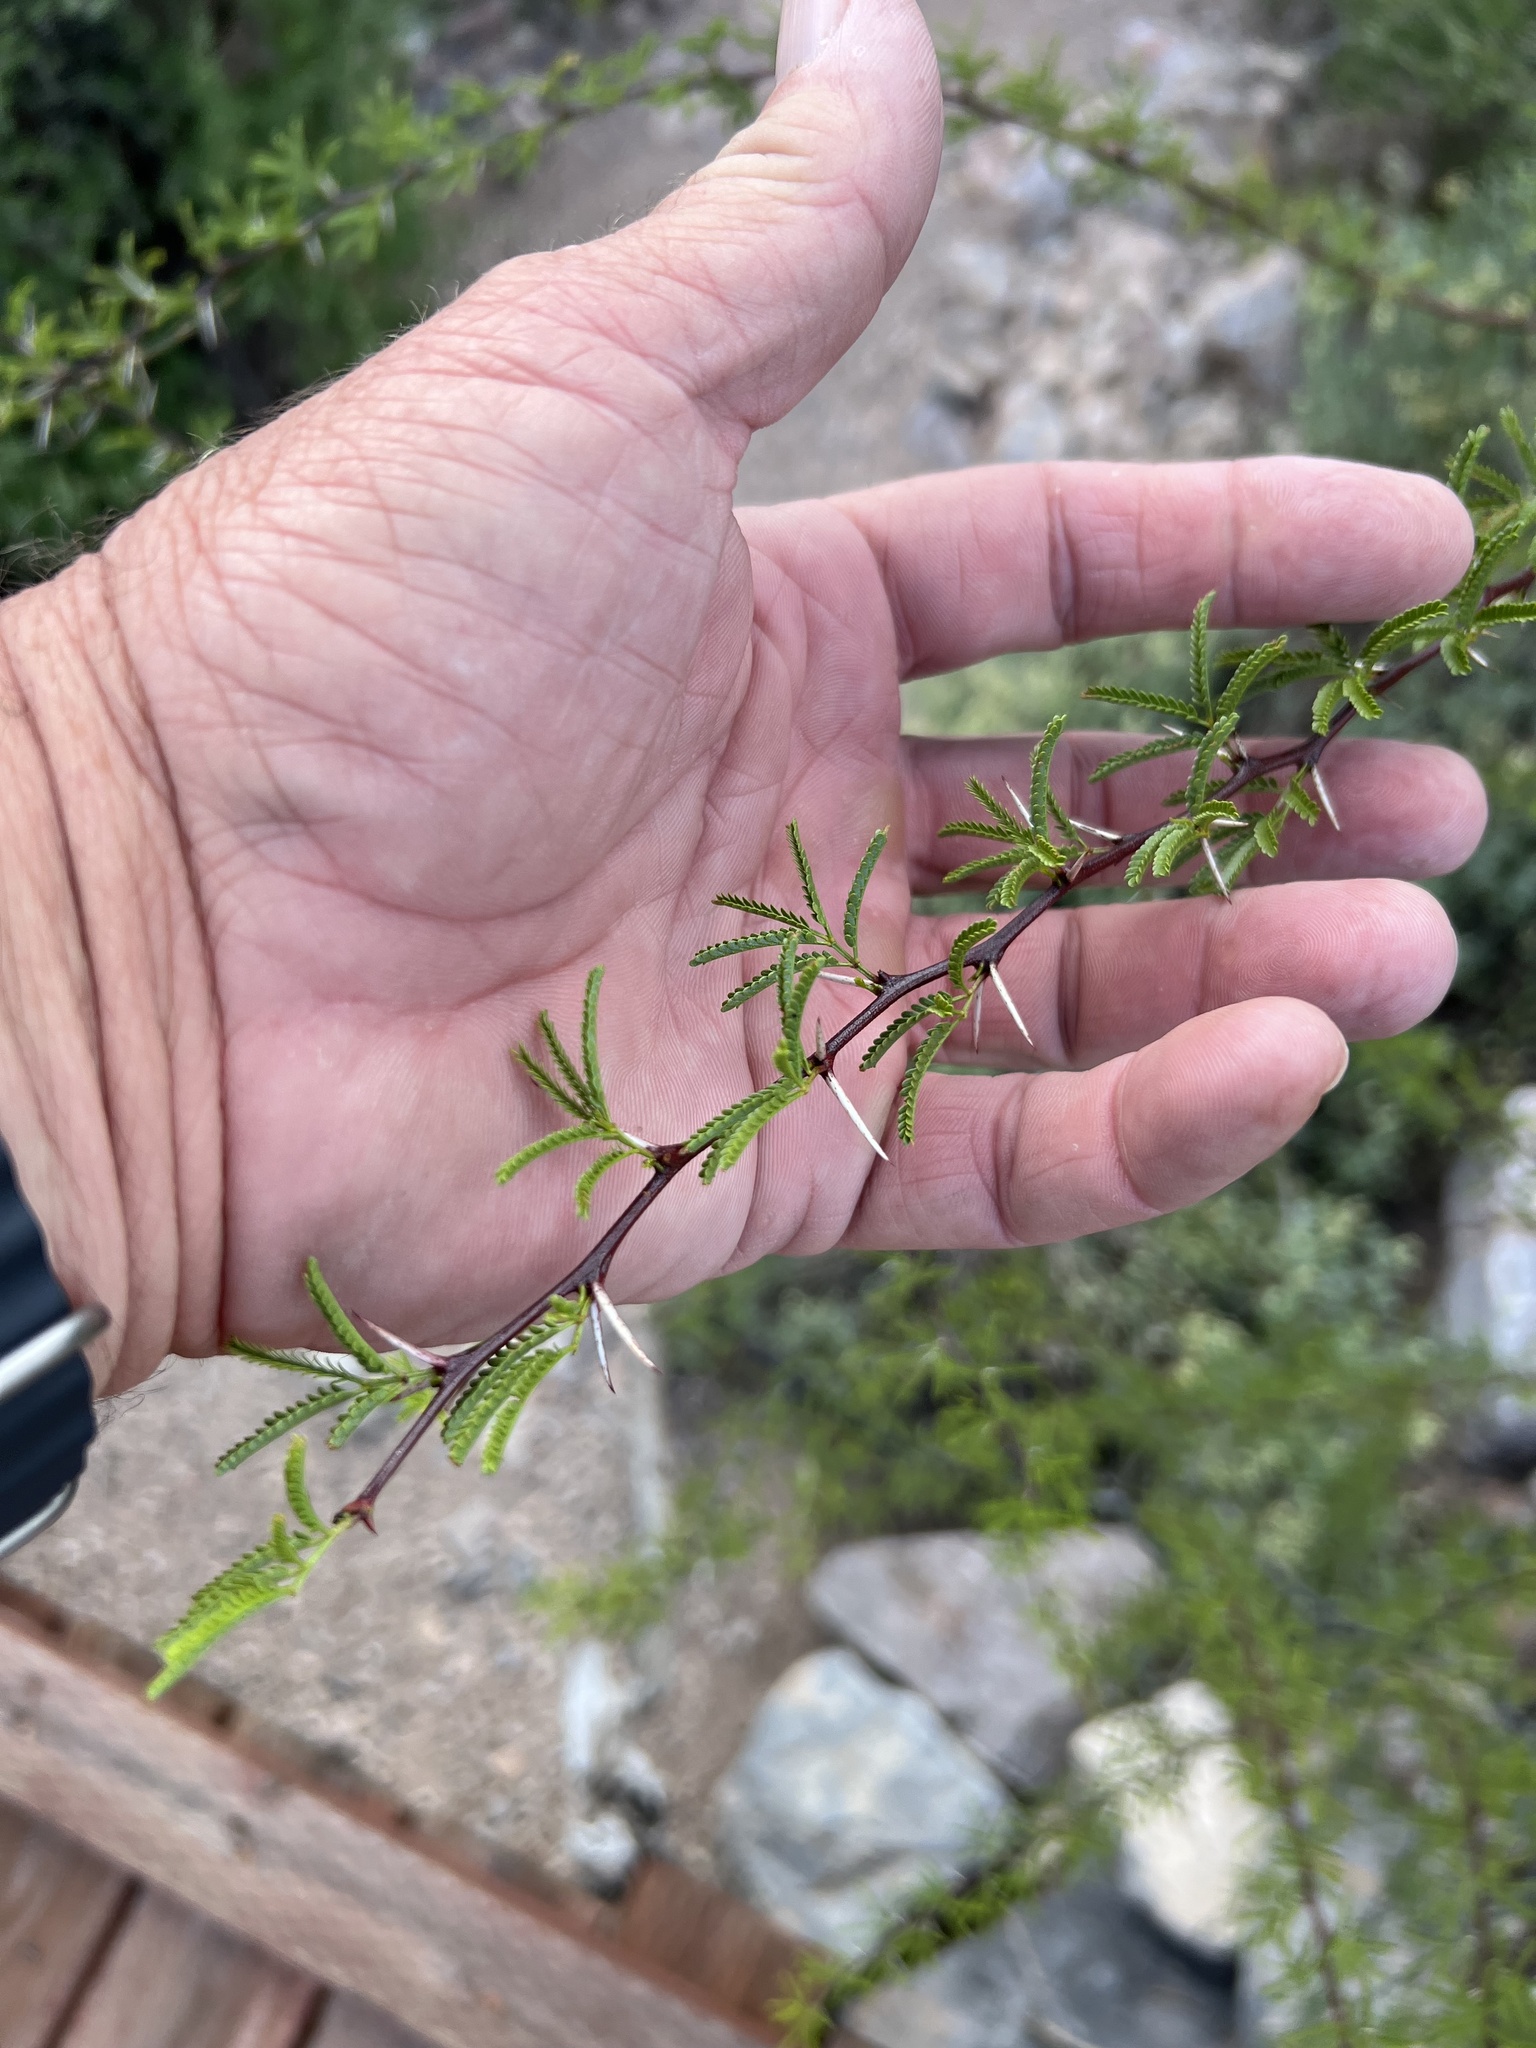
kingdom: Plantae
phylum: Tracheophyta
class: Magnoliopsida
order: Fabales
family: Fabaceae
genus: Vachellia
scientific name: Vachellia vernicosa
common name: Viscid acacia
